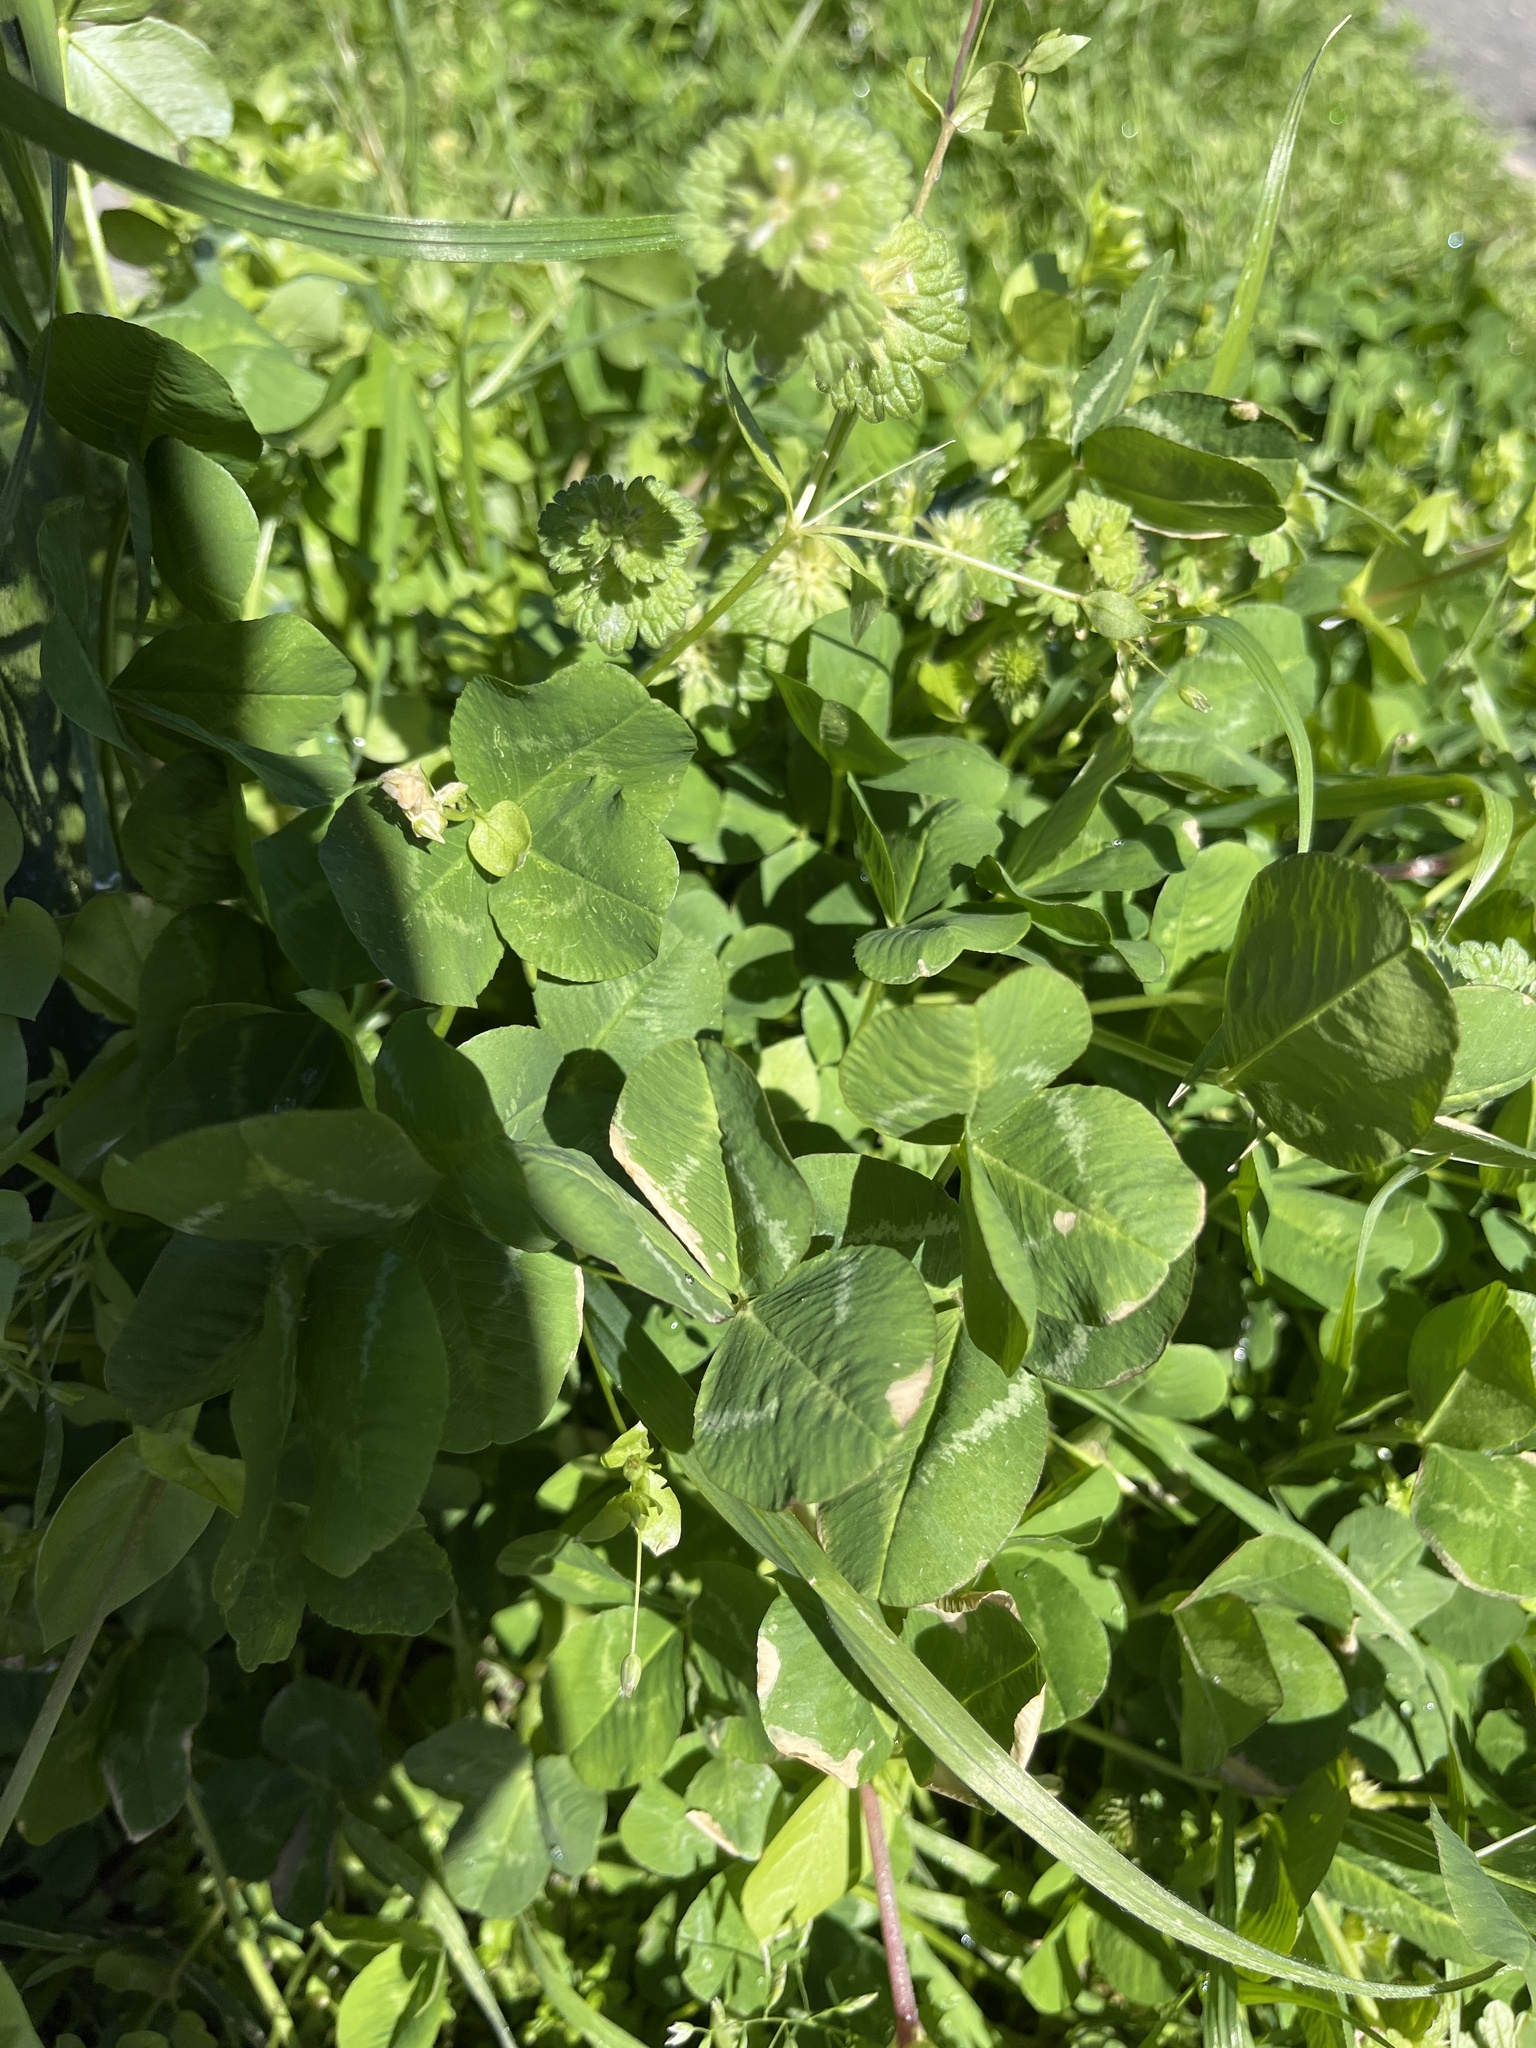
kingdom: Plantae
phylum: Tracheophyta
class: Magnoliopsida
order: Fabales
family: Fabaceae
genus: Trifolium
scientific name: Trifolium repens
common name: White clover
